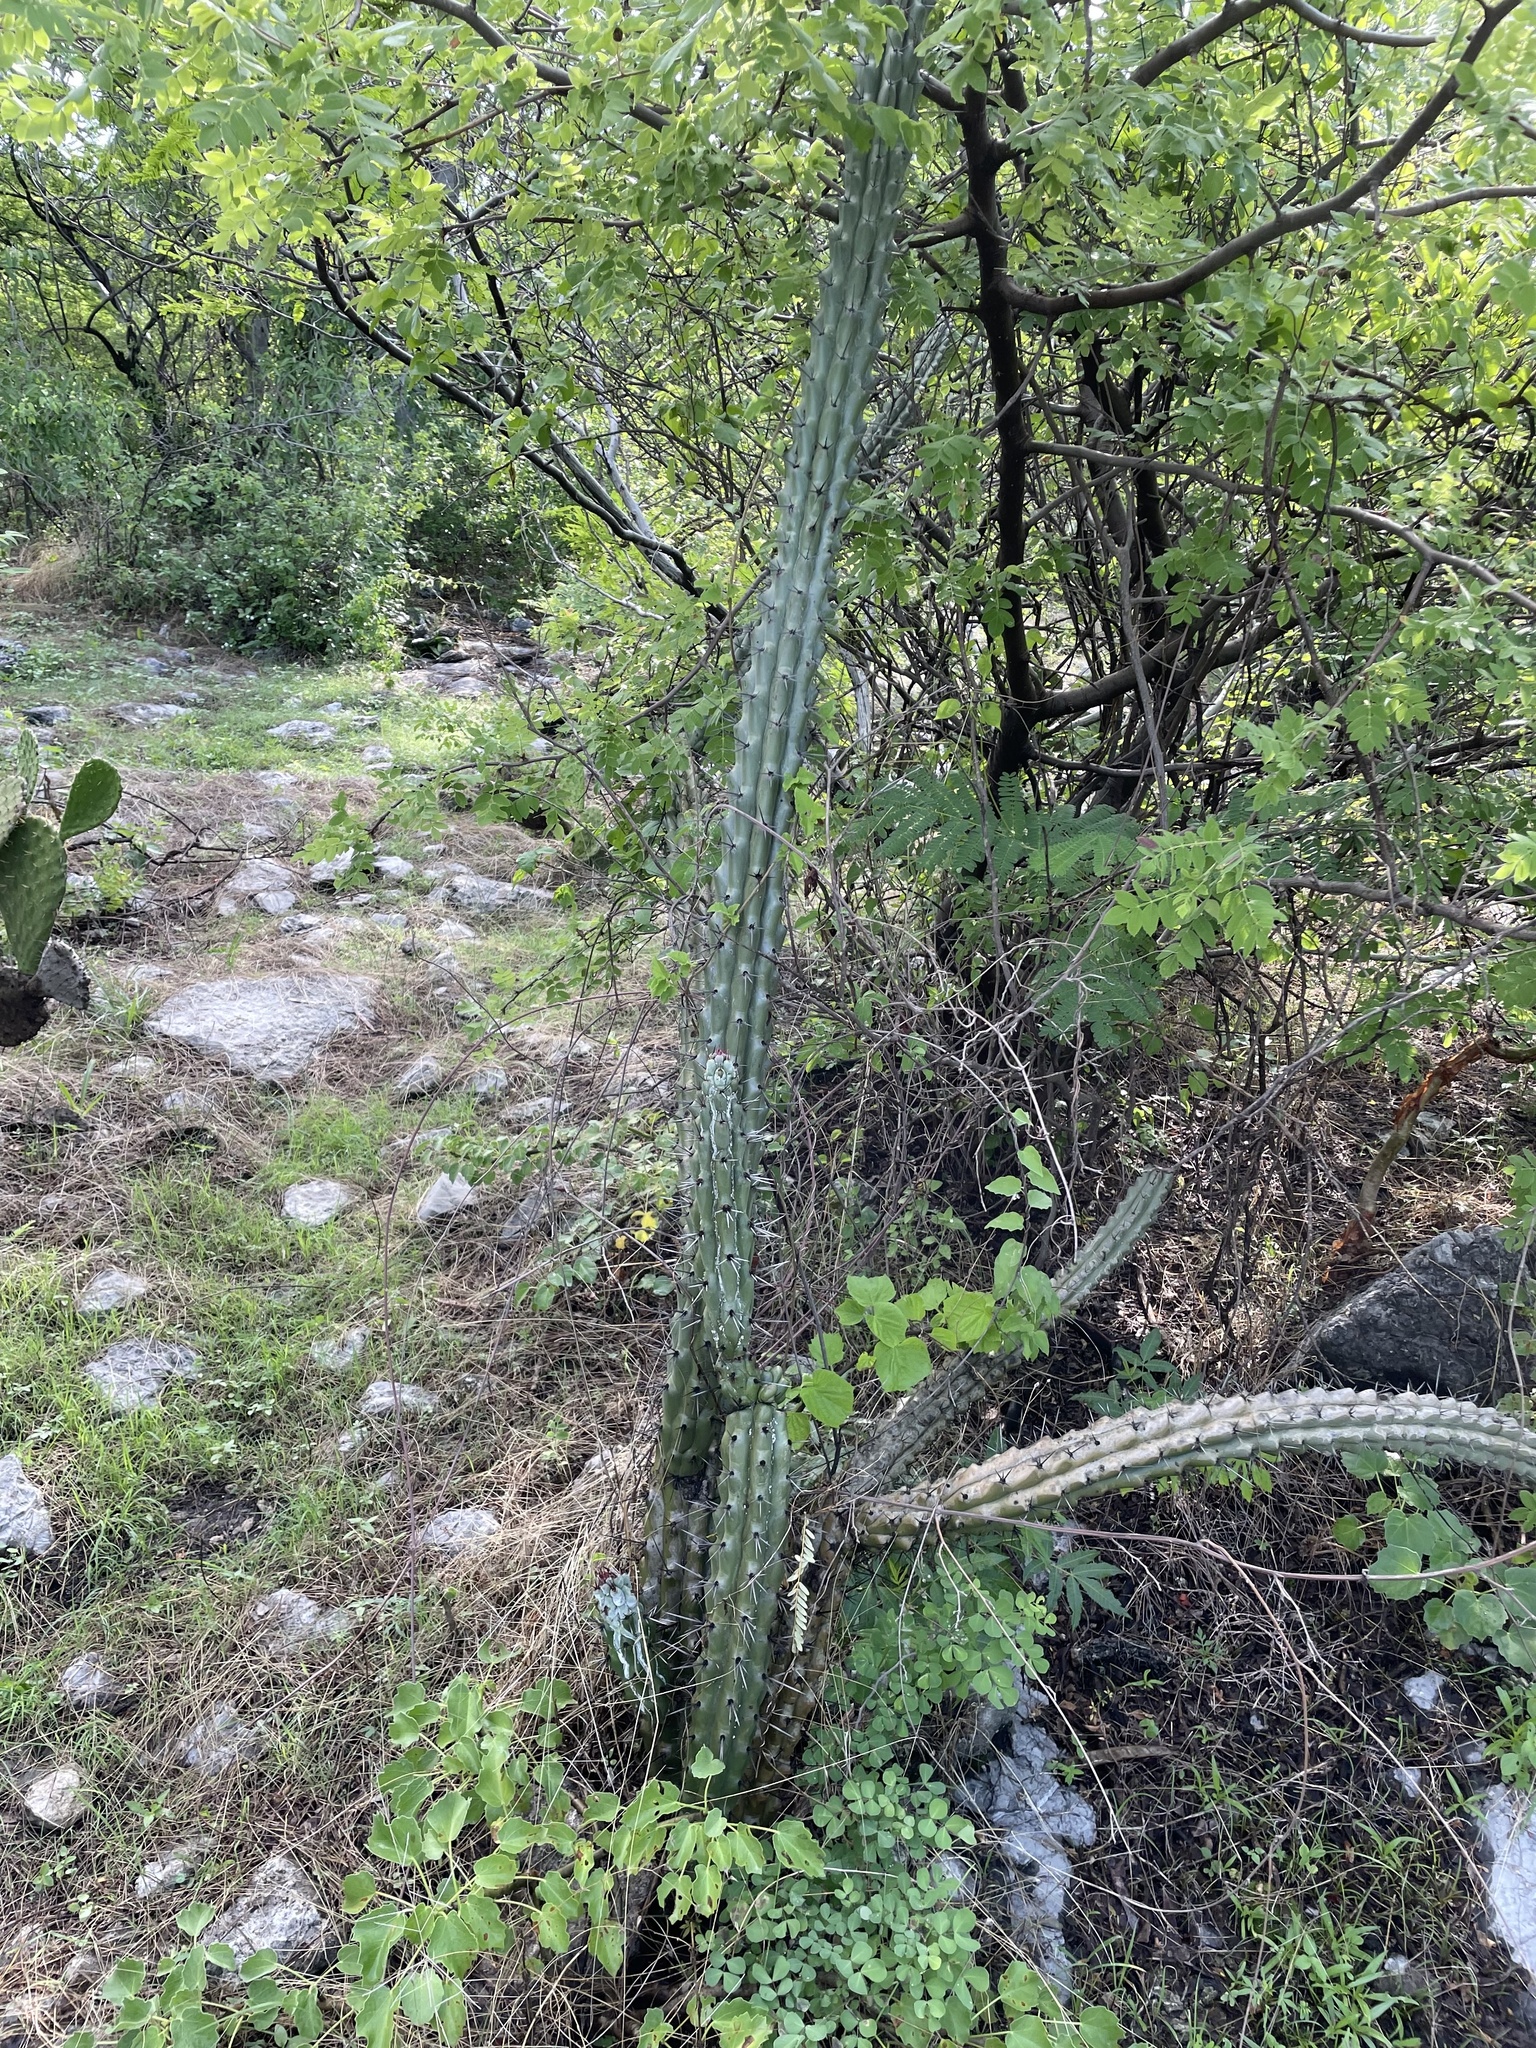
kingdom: Plantae
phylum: Tracheophyta
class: Magnoliopsida
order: Caryophyllales
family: Cactaceae
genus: Stenocereus
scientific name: Stenocereus beneckei
